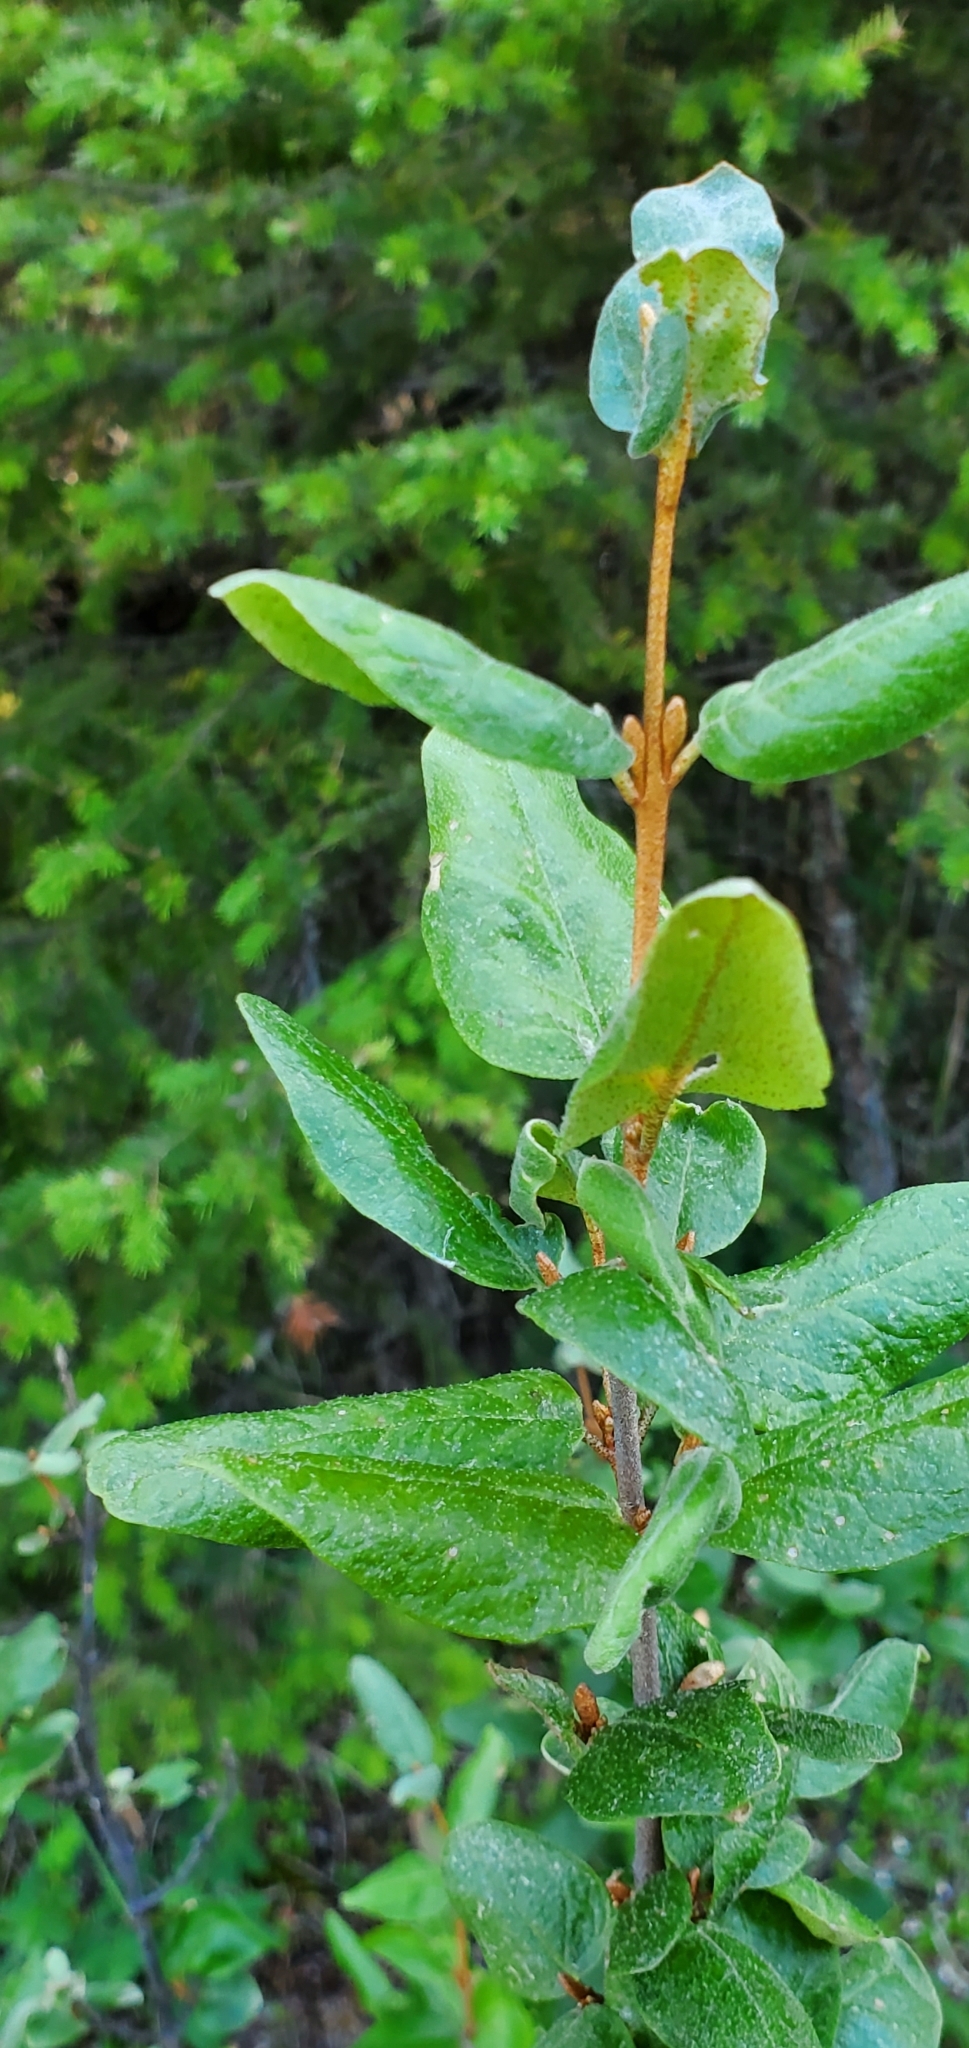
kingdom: Plantae
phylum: Tracheophyta
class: Magnoliopsida
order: Rosales
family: Elaeagnaceae
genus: Shepherdia
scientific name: Shepherdia canadensis
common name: Soapberry
